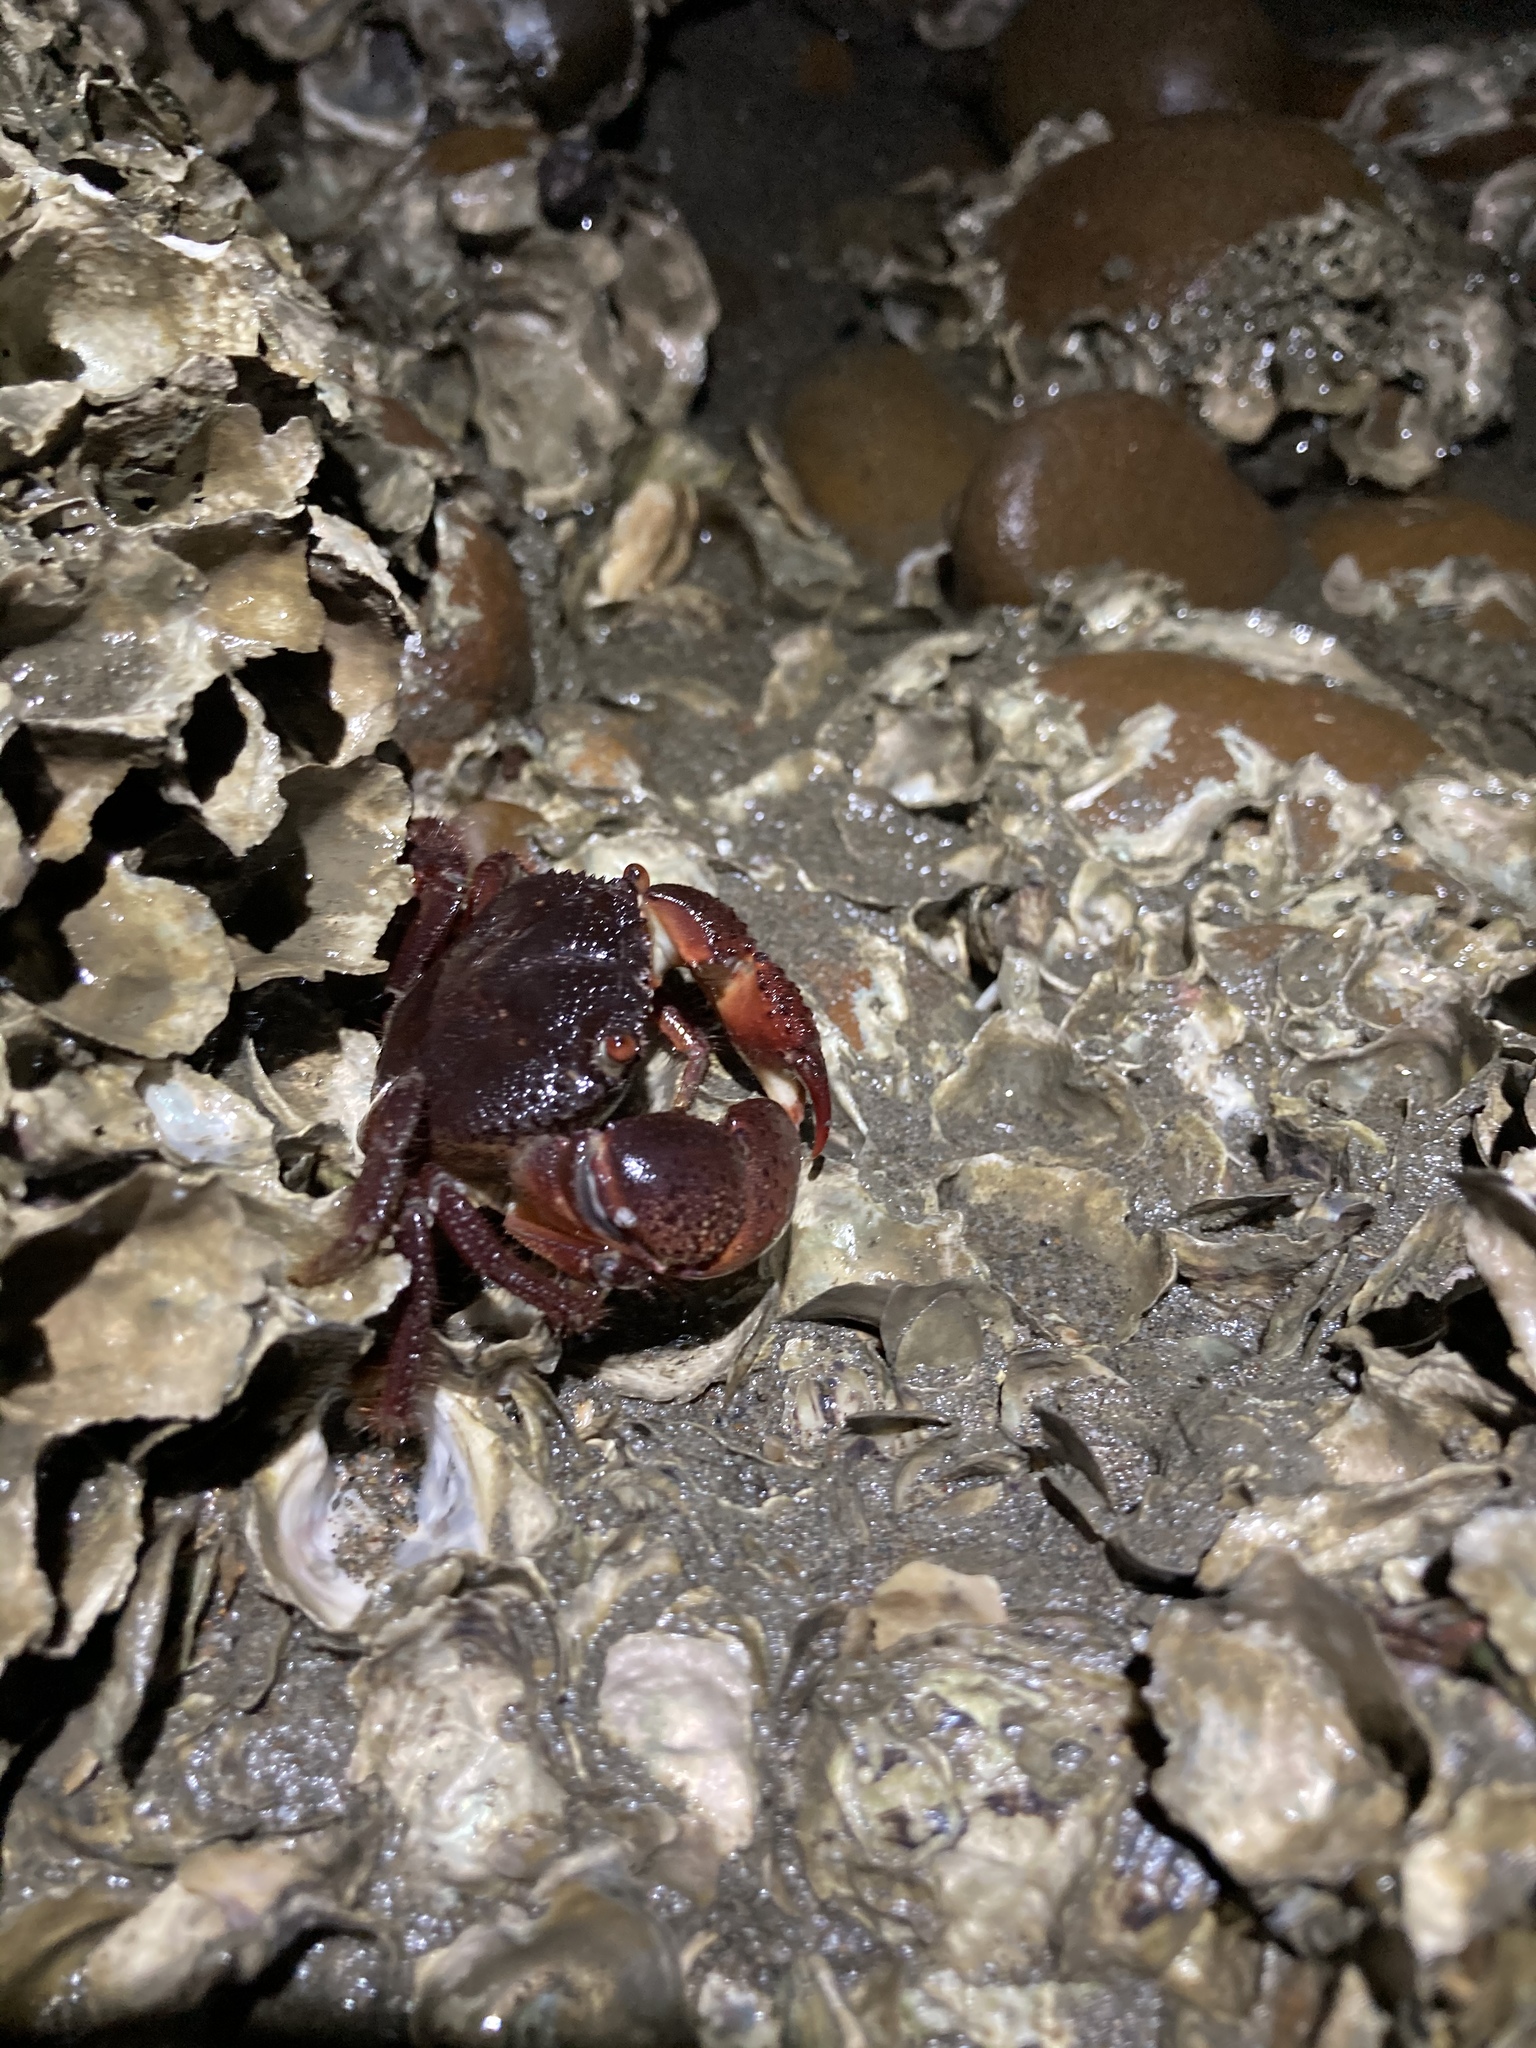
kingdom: Animalia
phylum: Arthropoda
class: Malacostraca
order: Decapoda
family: Eriphiidae
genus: Eriphia
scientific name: Eriphia ferox
